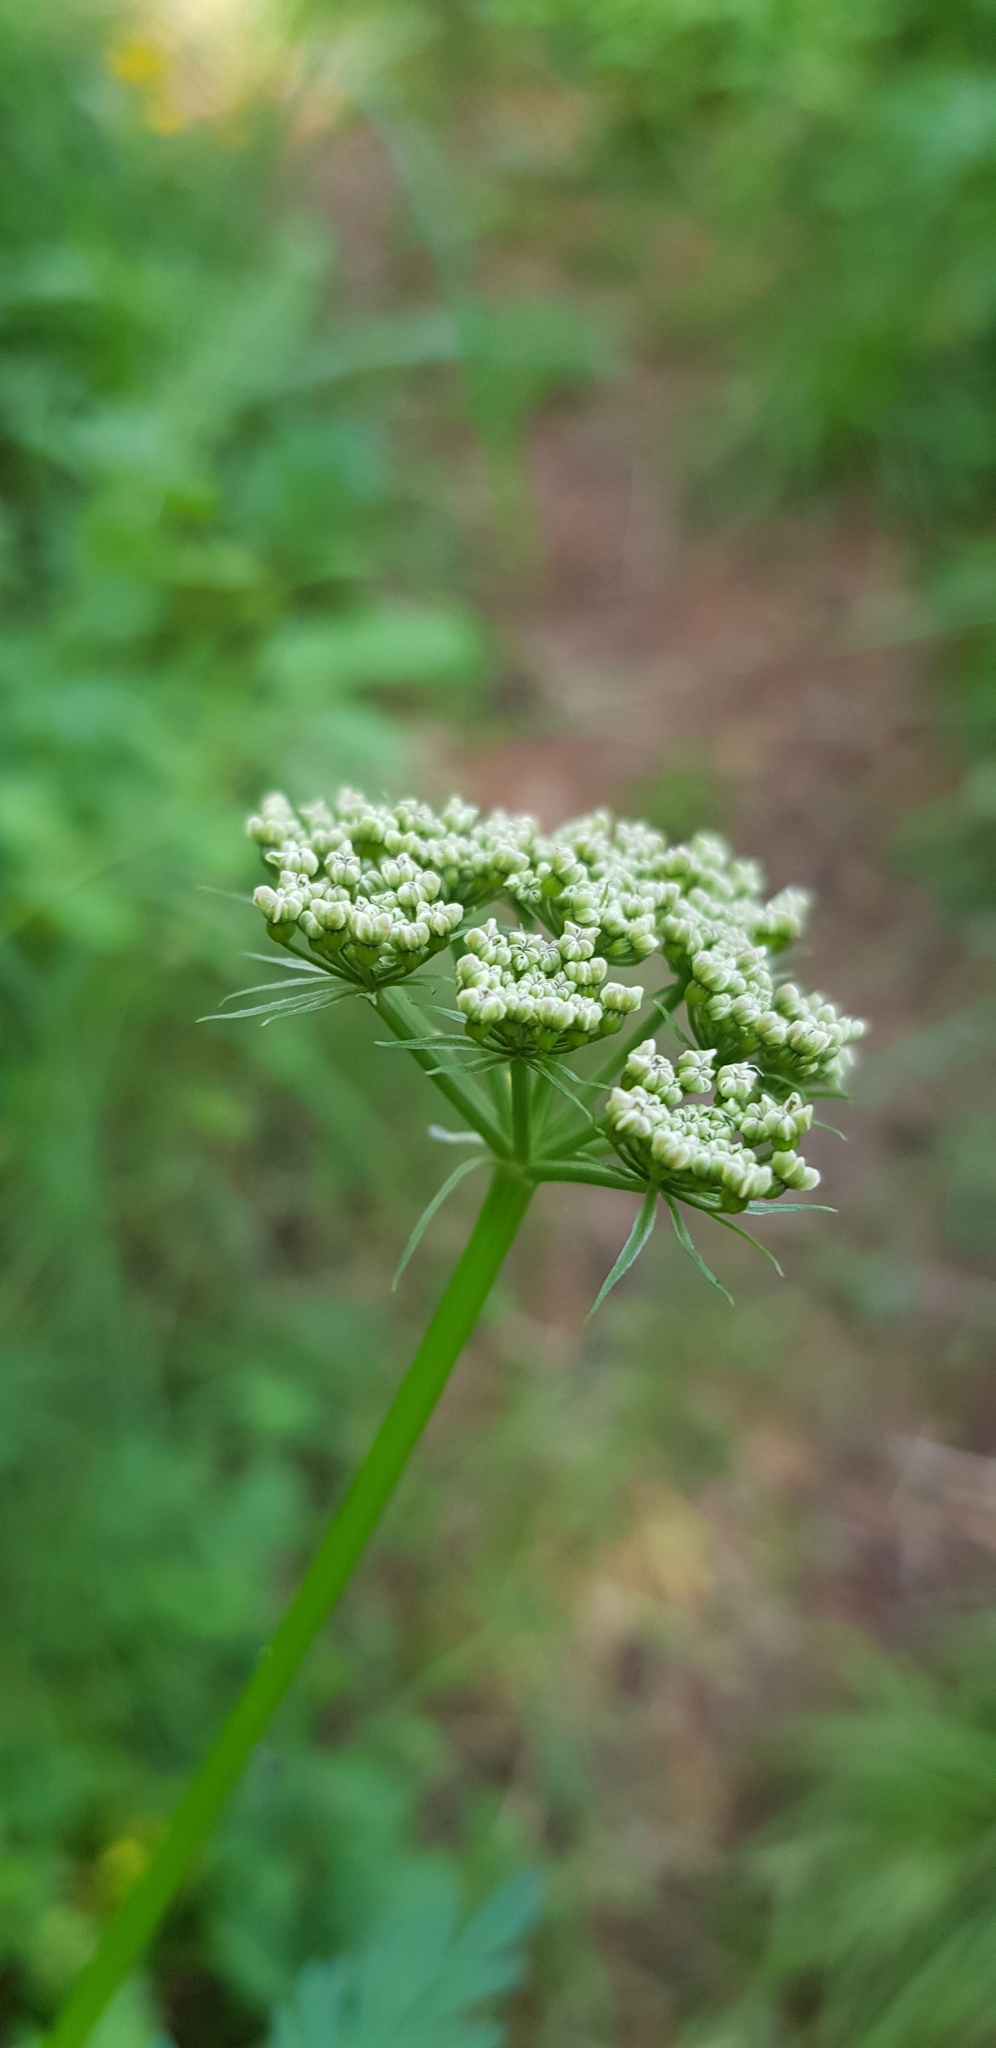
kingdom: Plantae
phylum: Tracheophyta
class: Magnoliopsida
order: Apiales
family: Apiaceae
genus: Conioselinum
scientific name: Conioselinum tataricum
